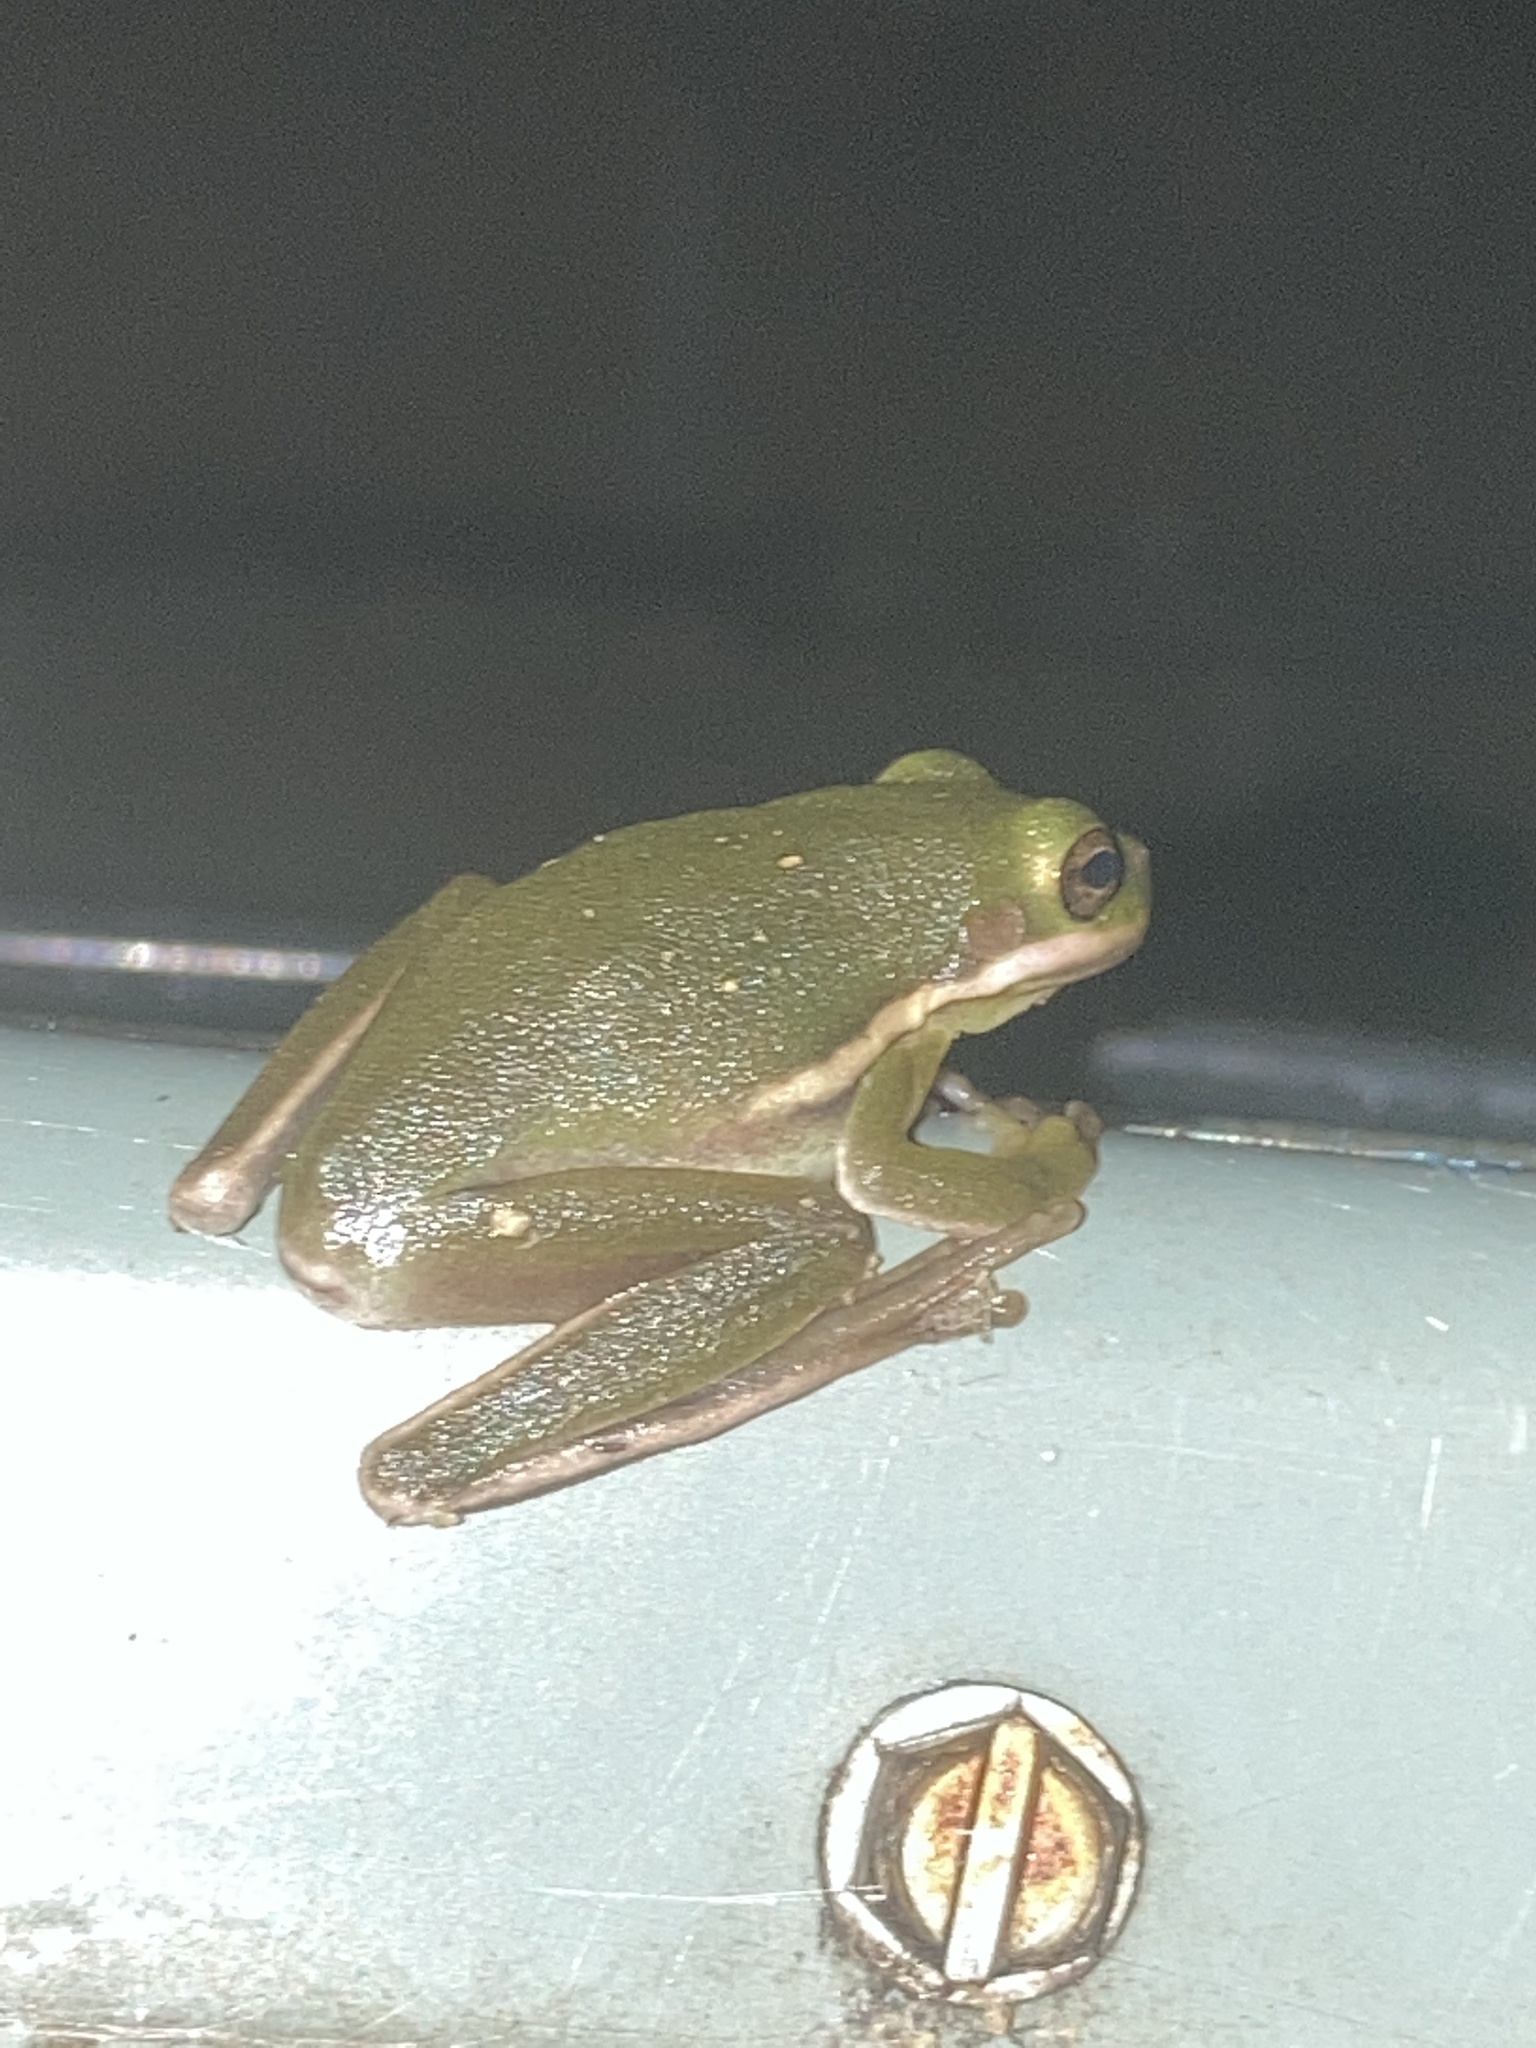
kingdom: Animalia
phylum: Chordata
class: Amphibia
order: Anura
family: Hylidae
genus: Dryophytes
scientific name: Dryophytes cinereus
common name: Green treefrog
